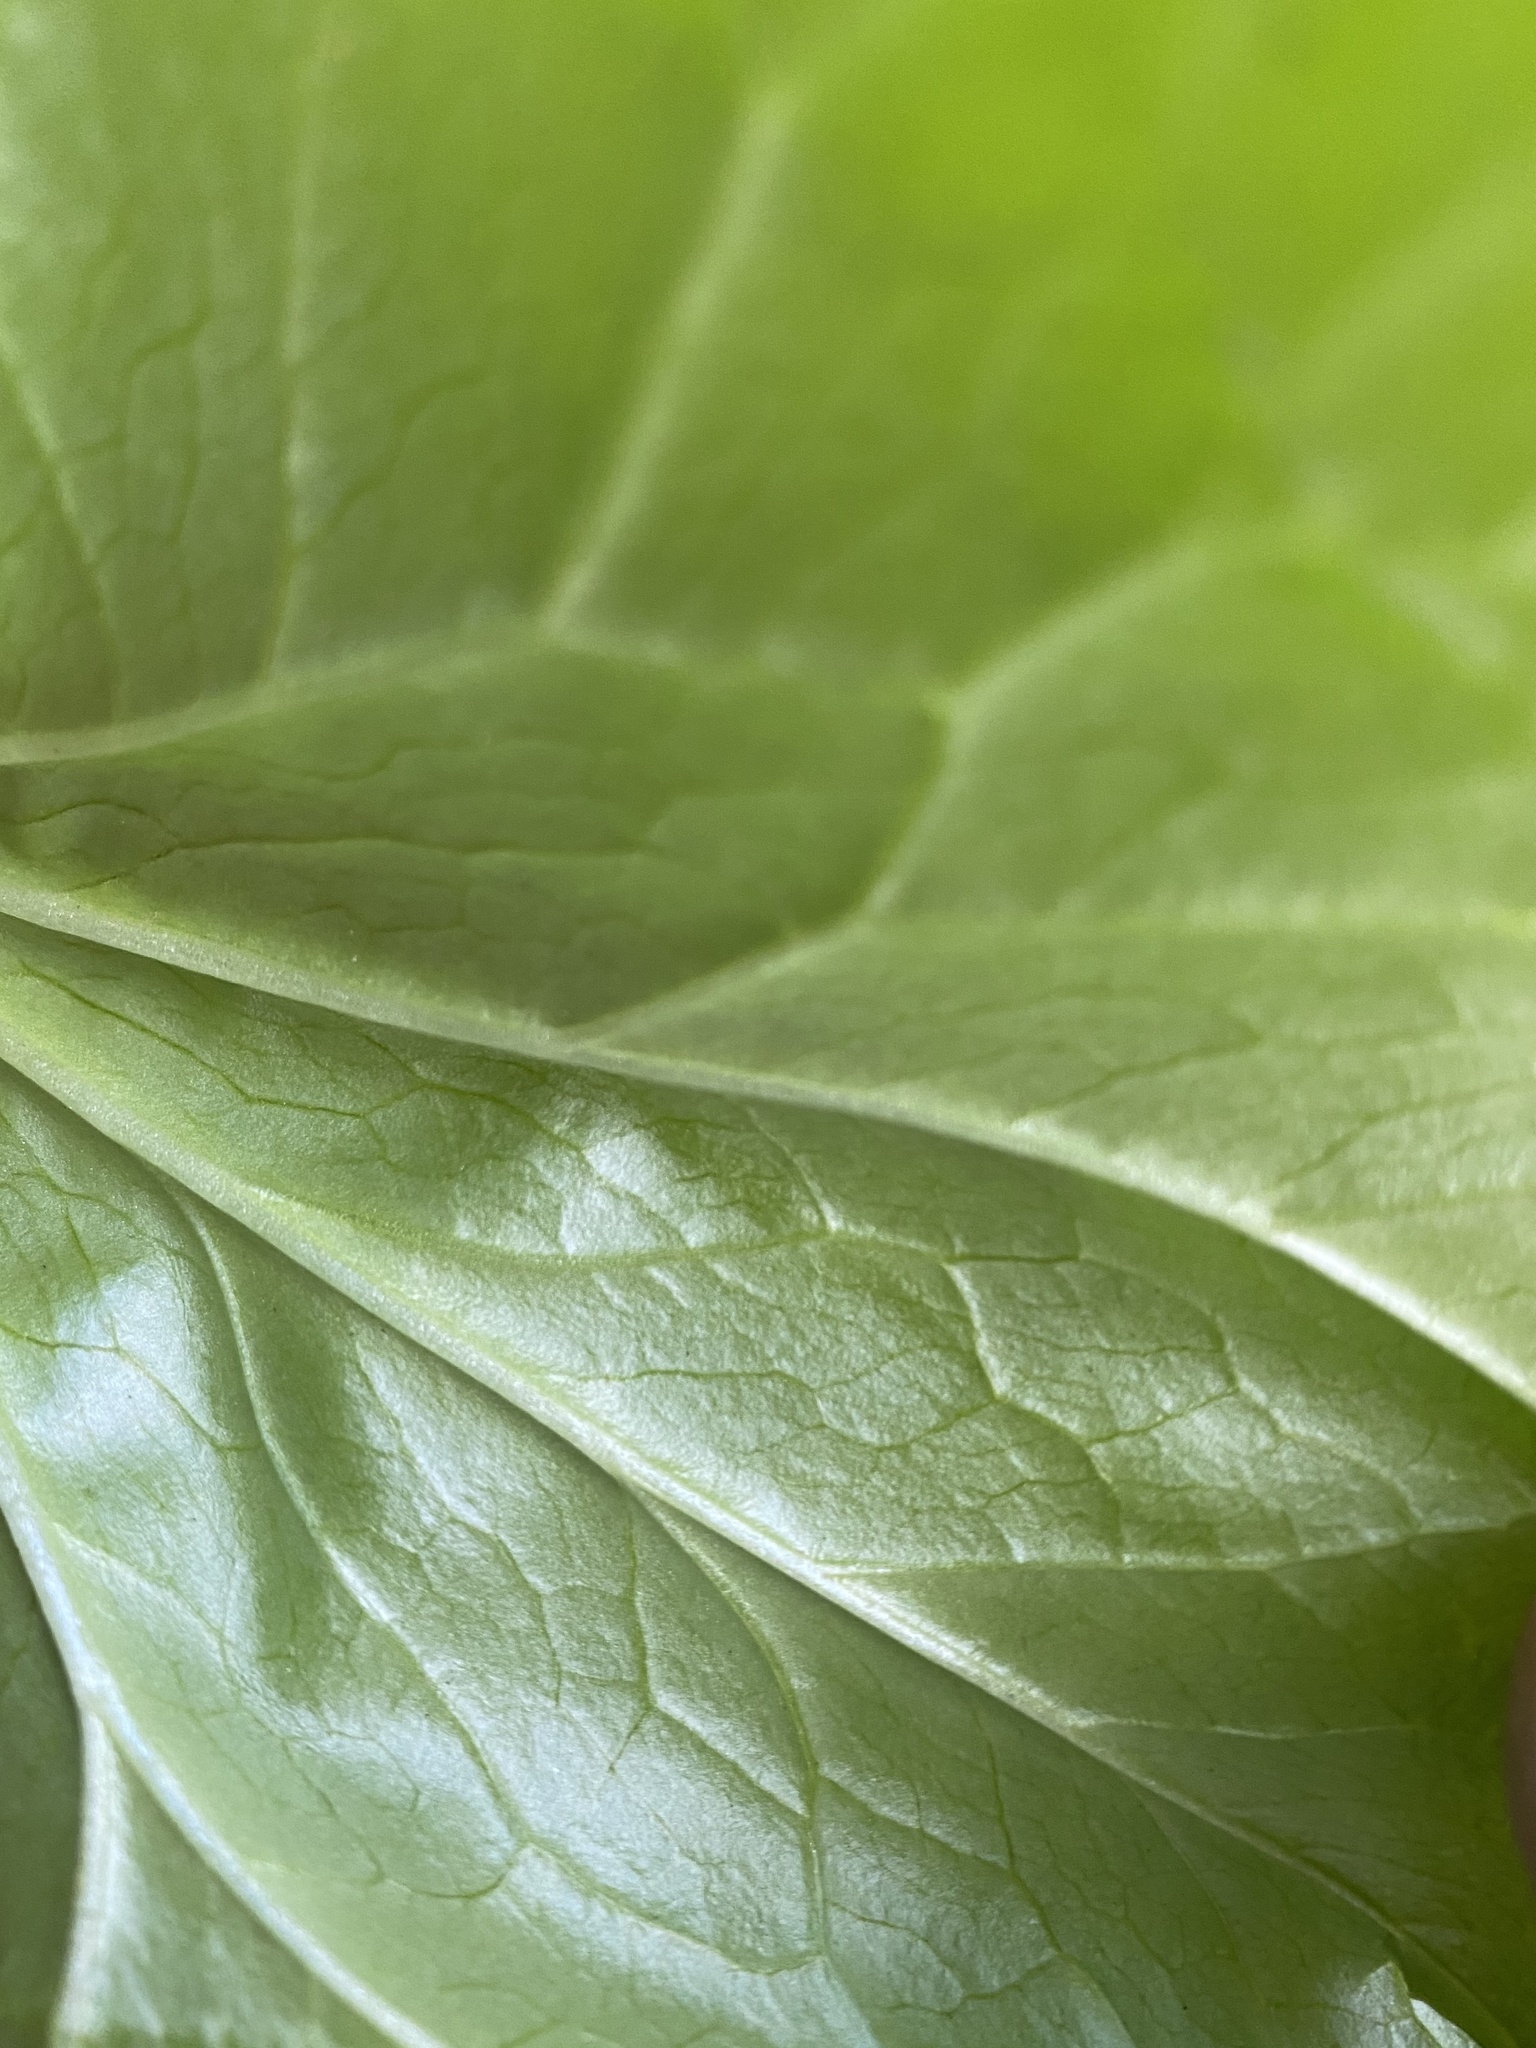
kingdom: Plantae
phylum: Tracheophyta
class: Liliopsida
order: Liliales
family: Melanthiaceae
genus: Trillium
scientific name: Trillium chloropetalum
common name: Giant trillium
